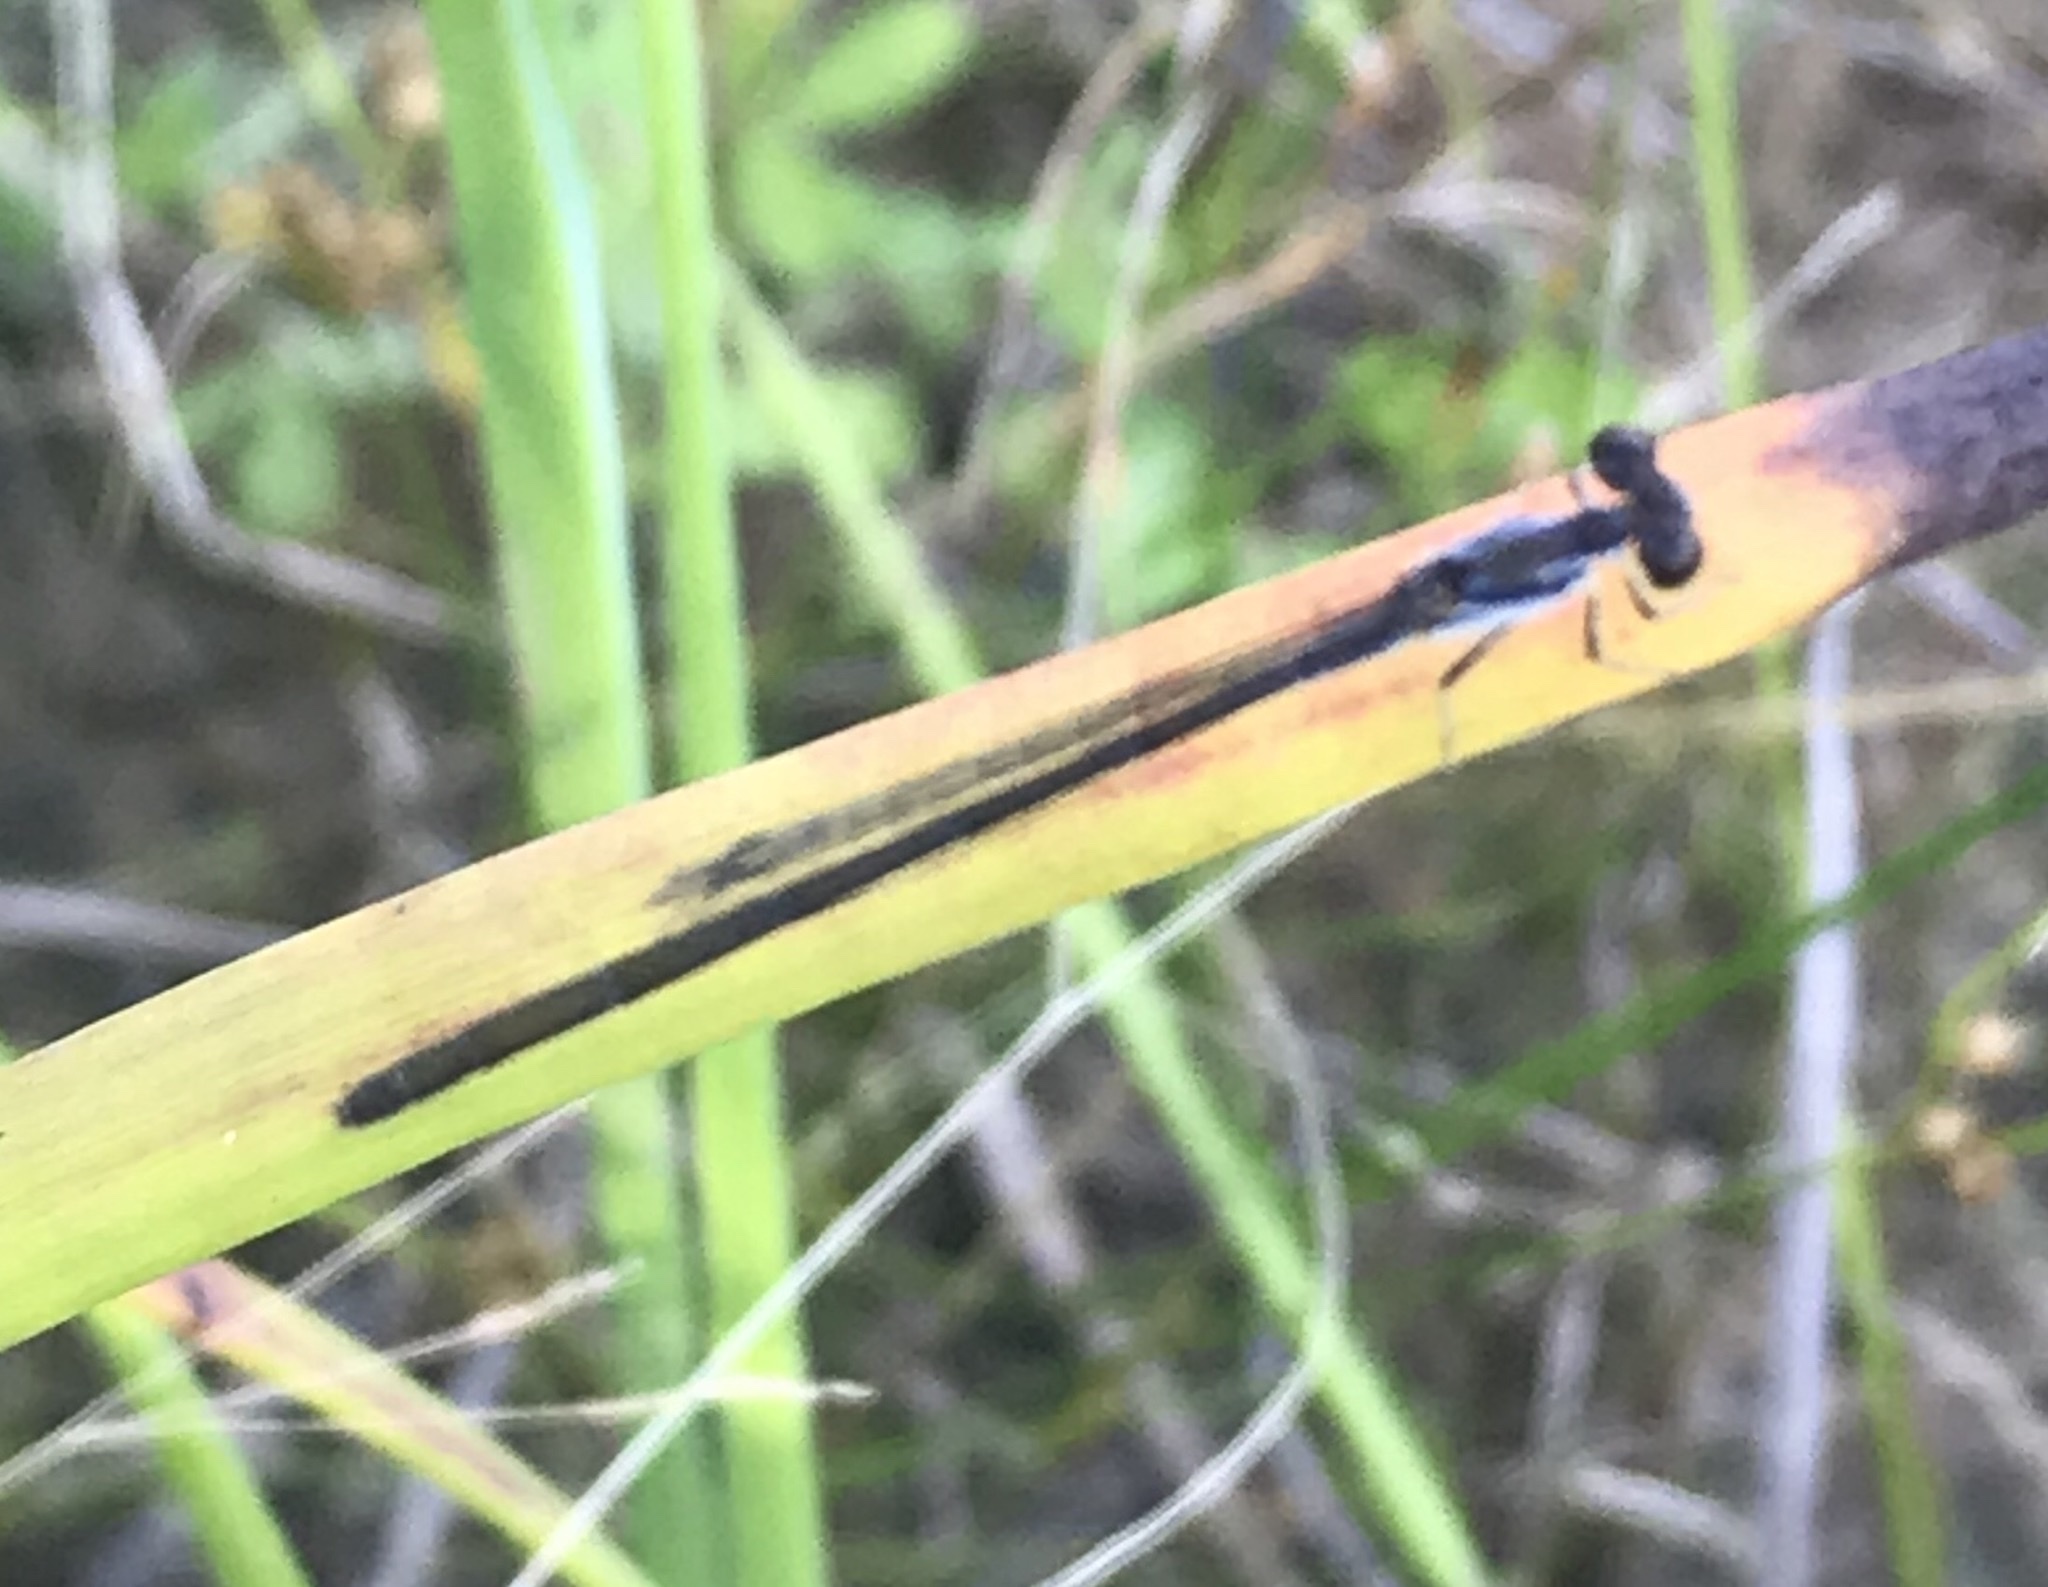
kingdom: Animalia
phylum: Arthropoda
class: Insecta
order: Odonata
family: Coenagrionidae
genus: Ischnura
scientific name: Ischnura posita
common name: Fragile forktail
